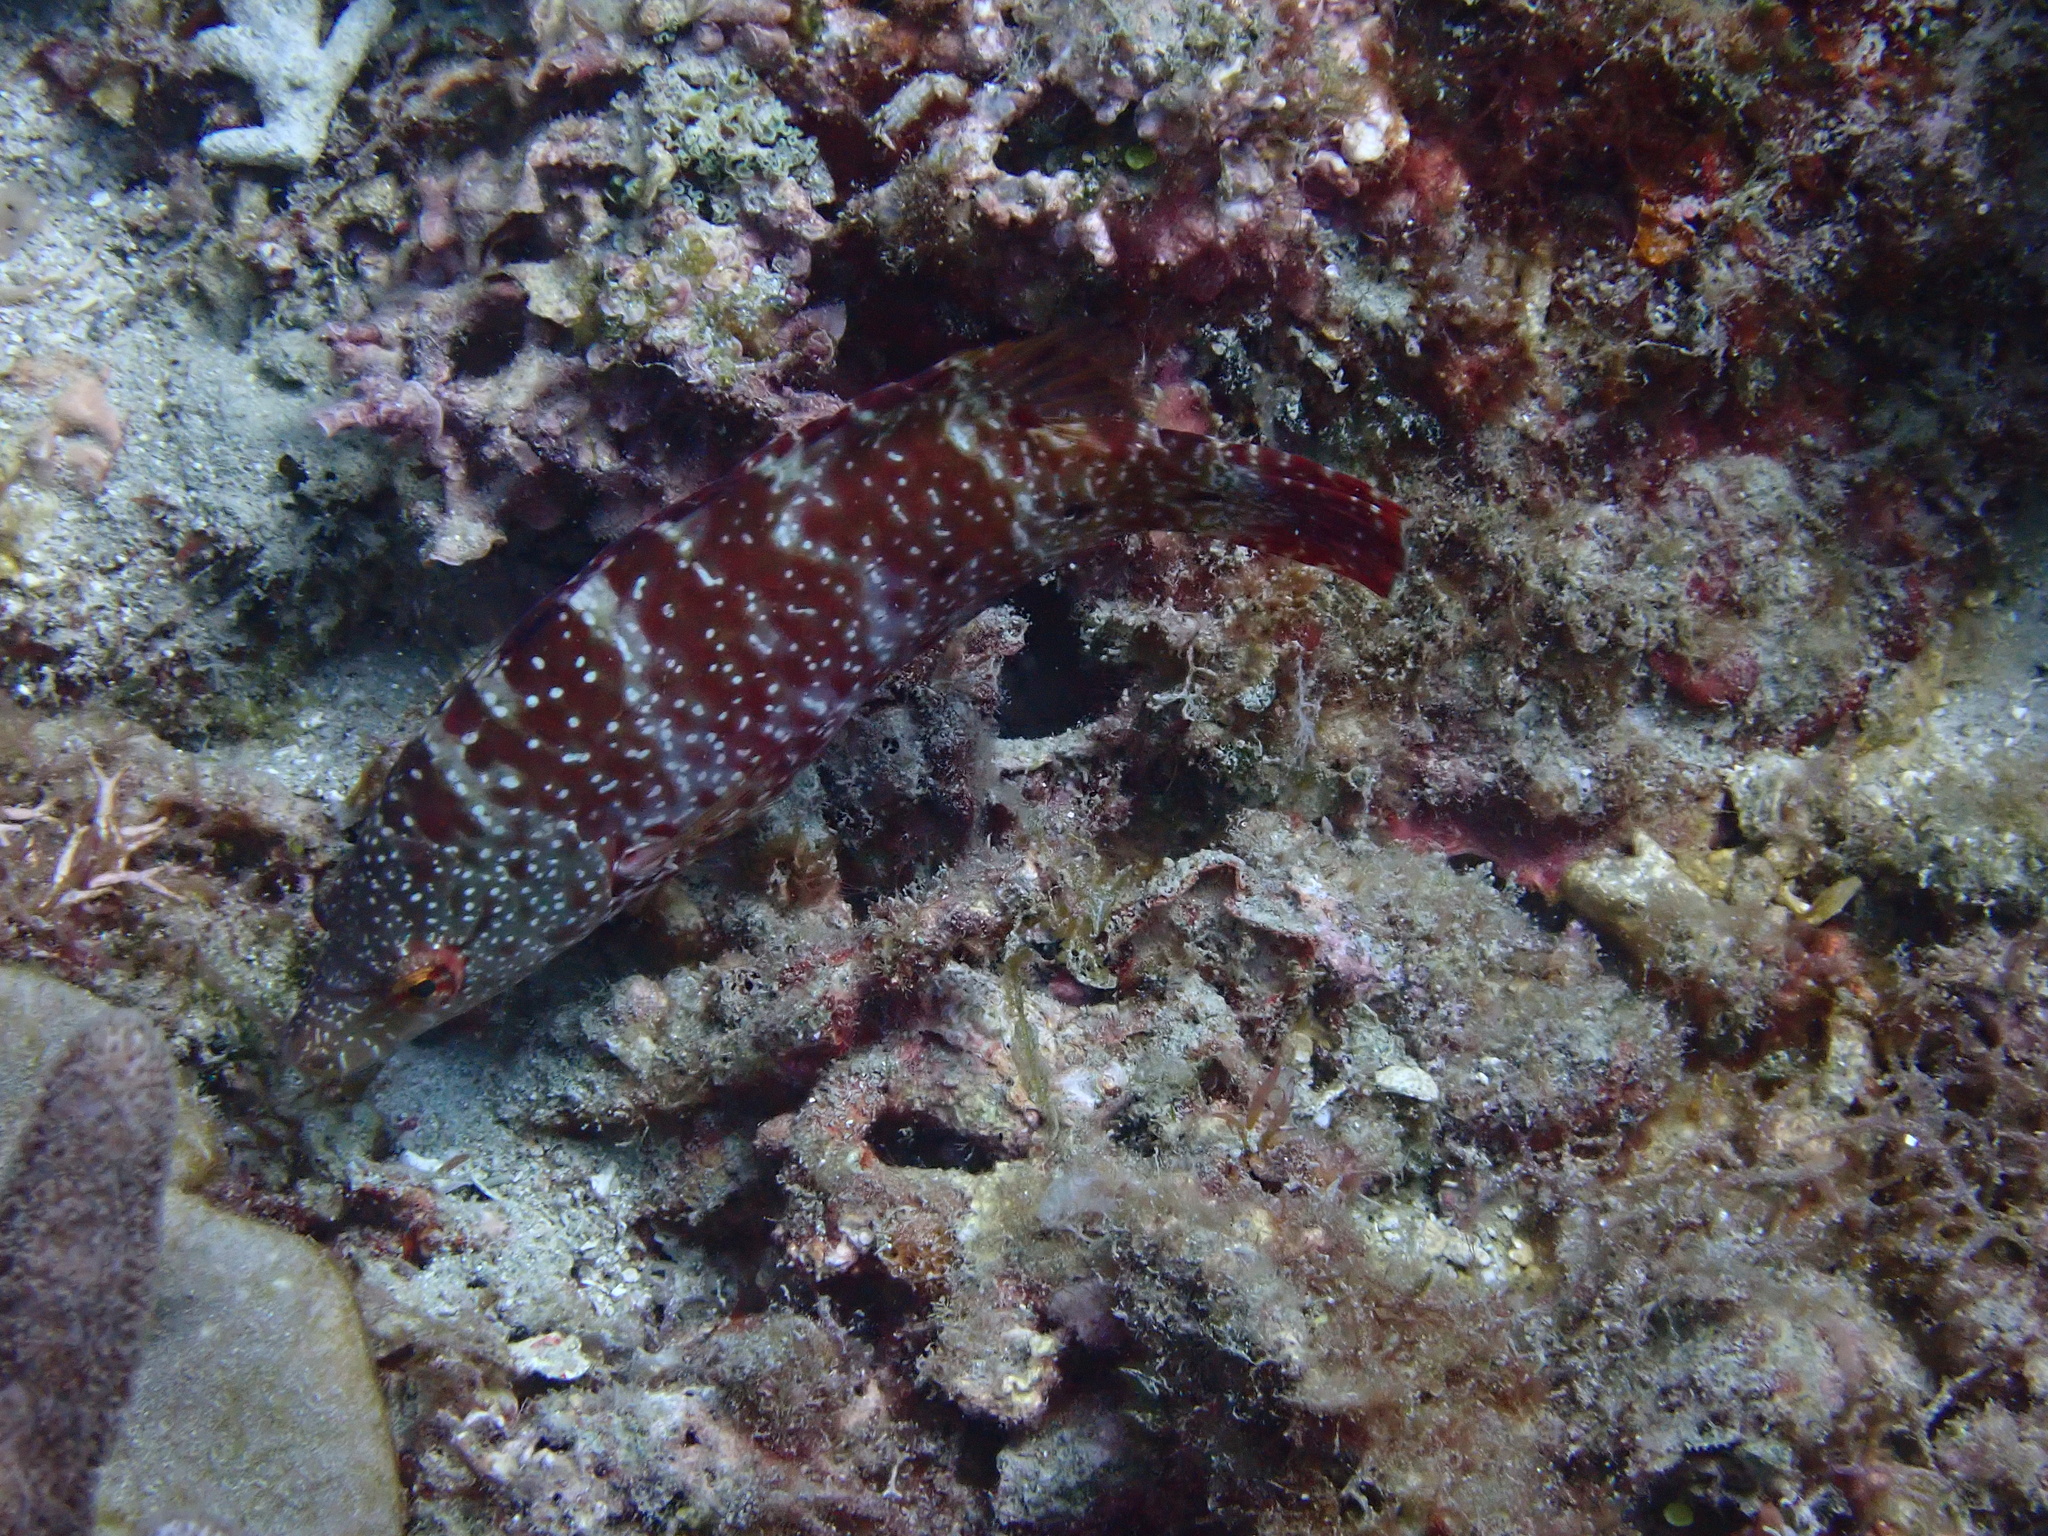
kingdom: Animalia
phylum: Chordata
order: Perciformes
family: Labridae
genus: Cheilinus
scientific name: Cheilinus oxycephalus
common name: Snooty wrasse
